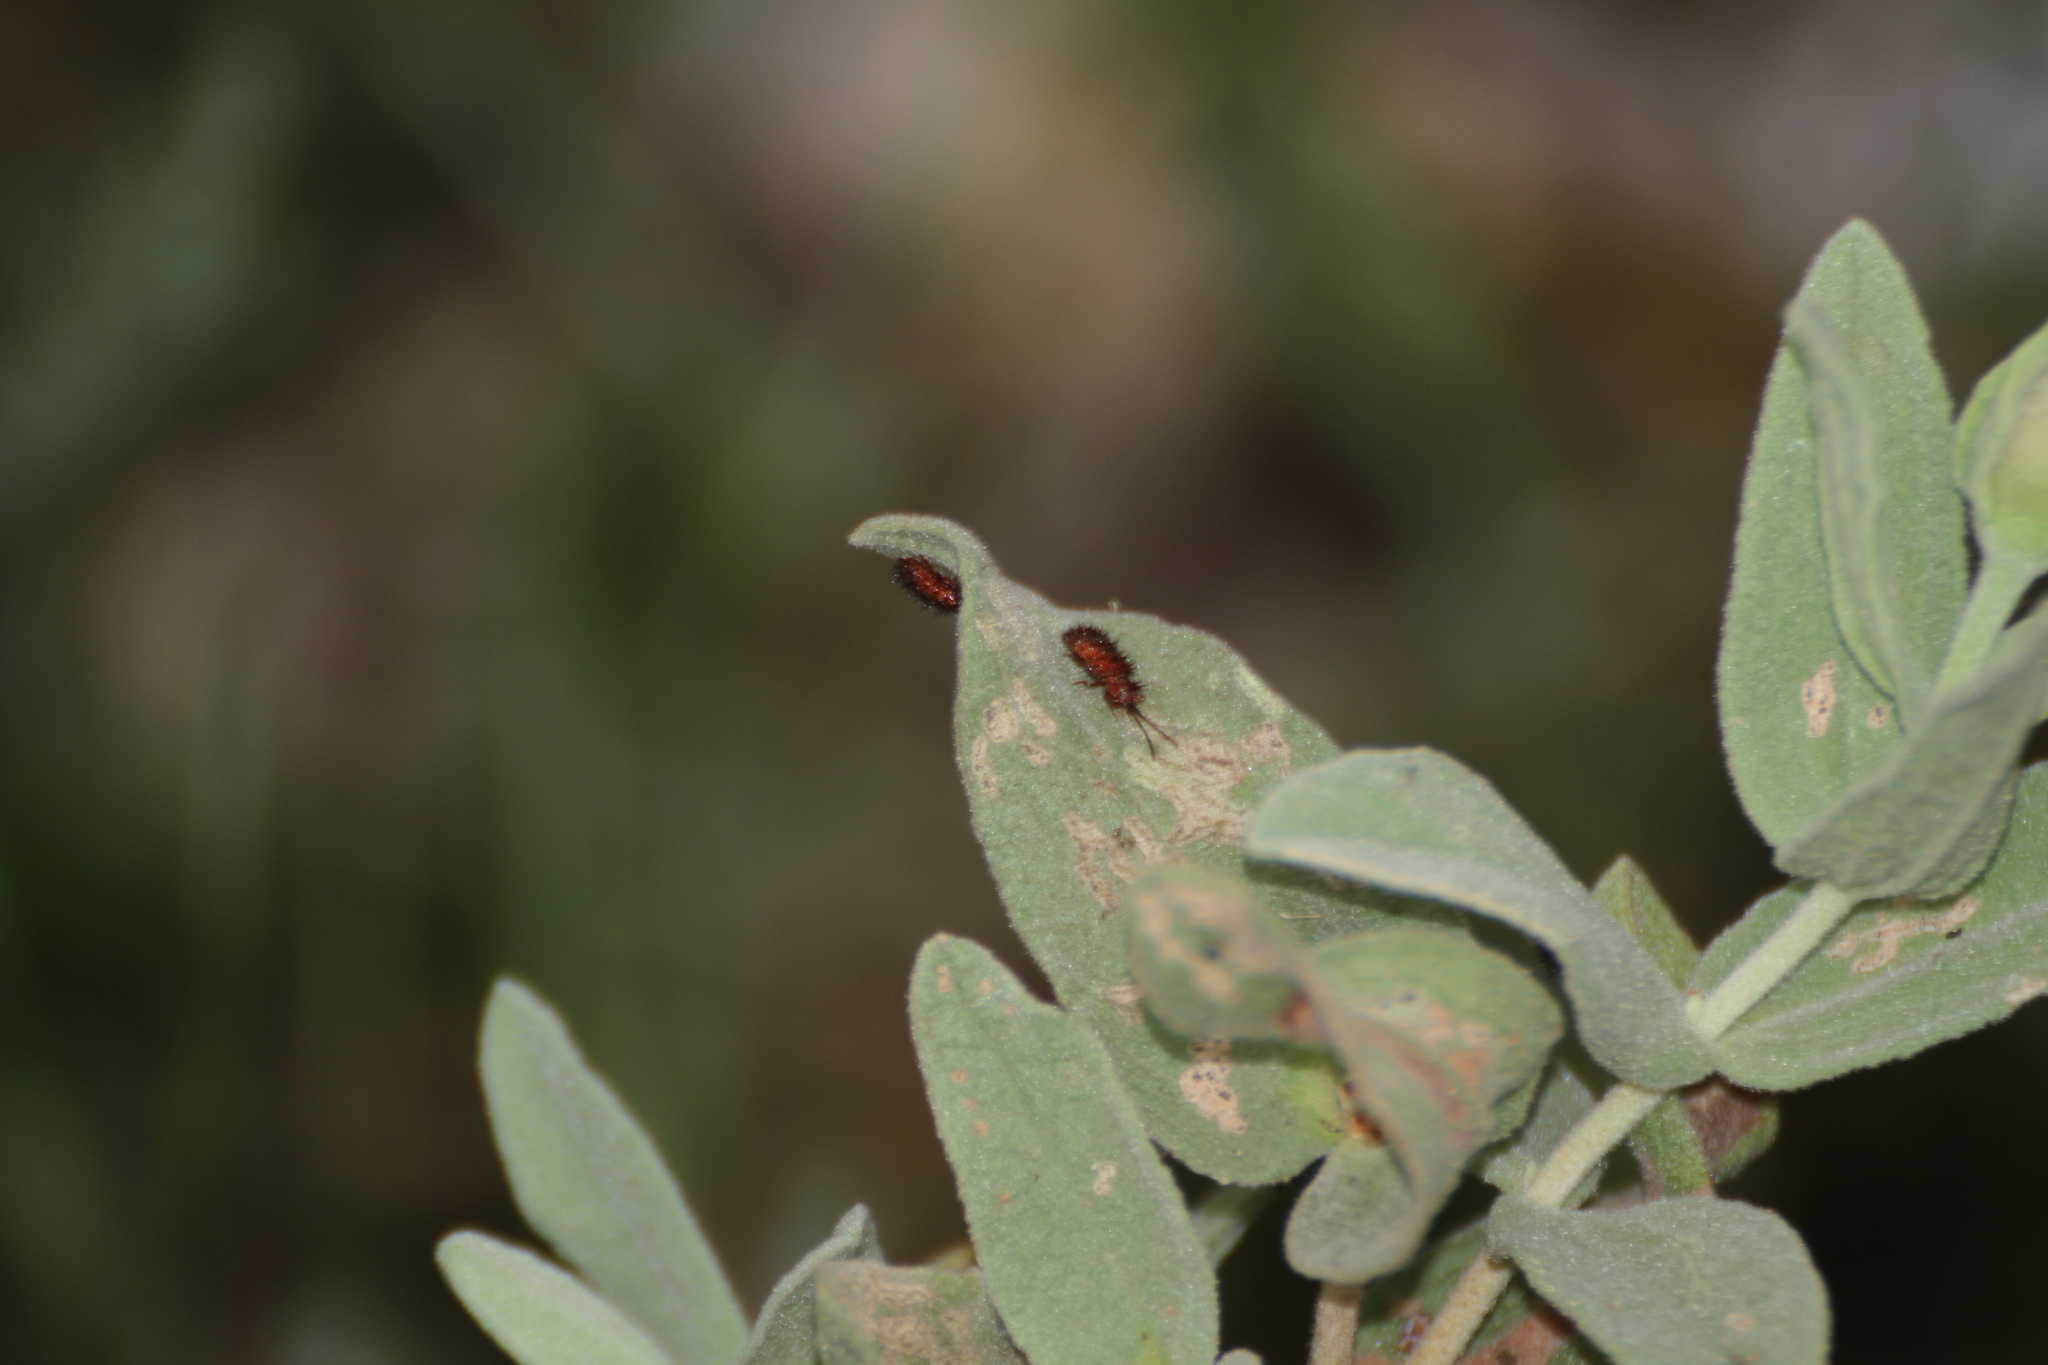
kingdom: Animalia
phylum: Arthropoda
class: Insecta
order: Coleoptera
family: Chrysomelidae
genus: Dicladispa
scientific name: Dicladispa testacea
